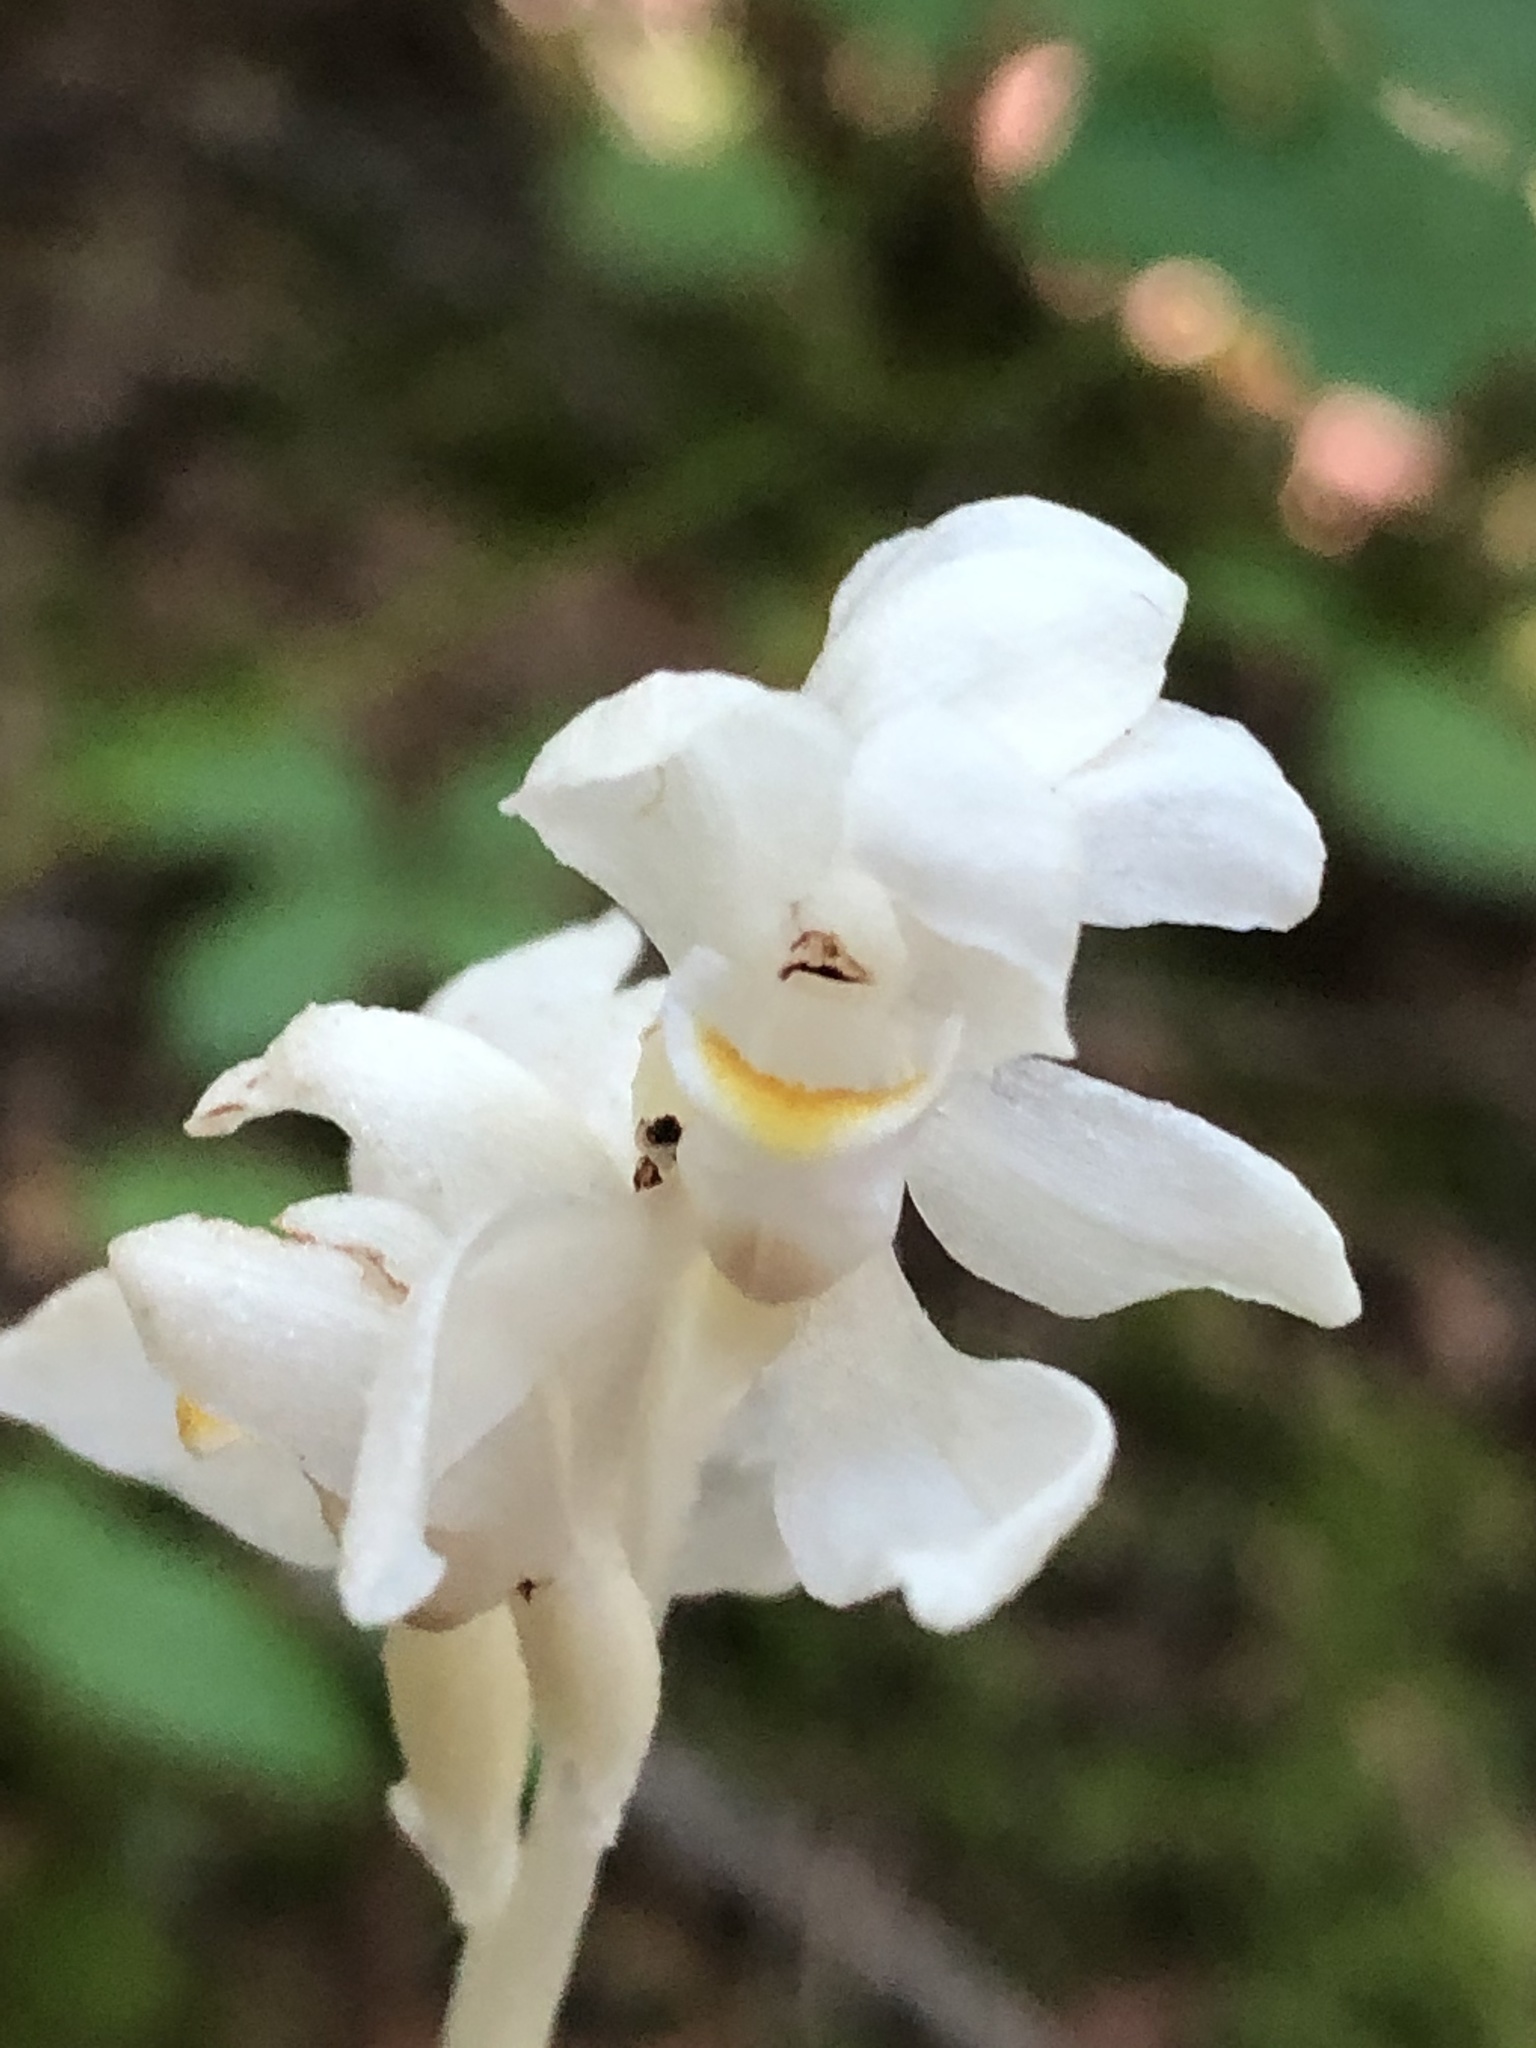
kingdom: Plantae
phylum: Tracheophyta
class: Liliopsida
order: Asparagales
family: Orchidaceae
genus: Cephalanthera
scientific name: Cephalanthera austiniae
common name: Phantom orchid
